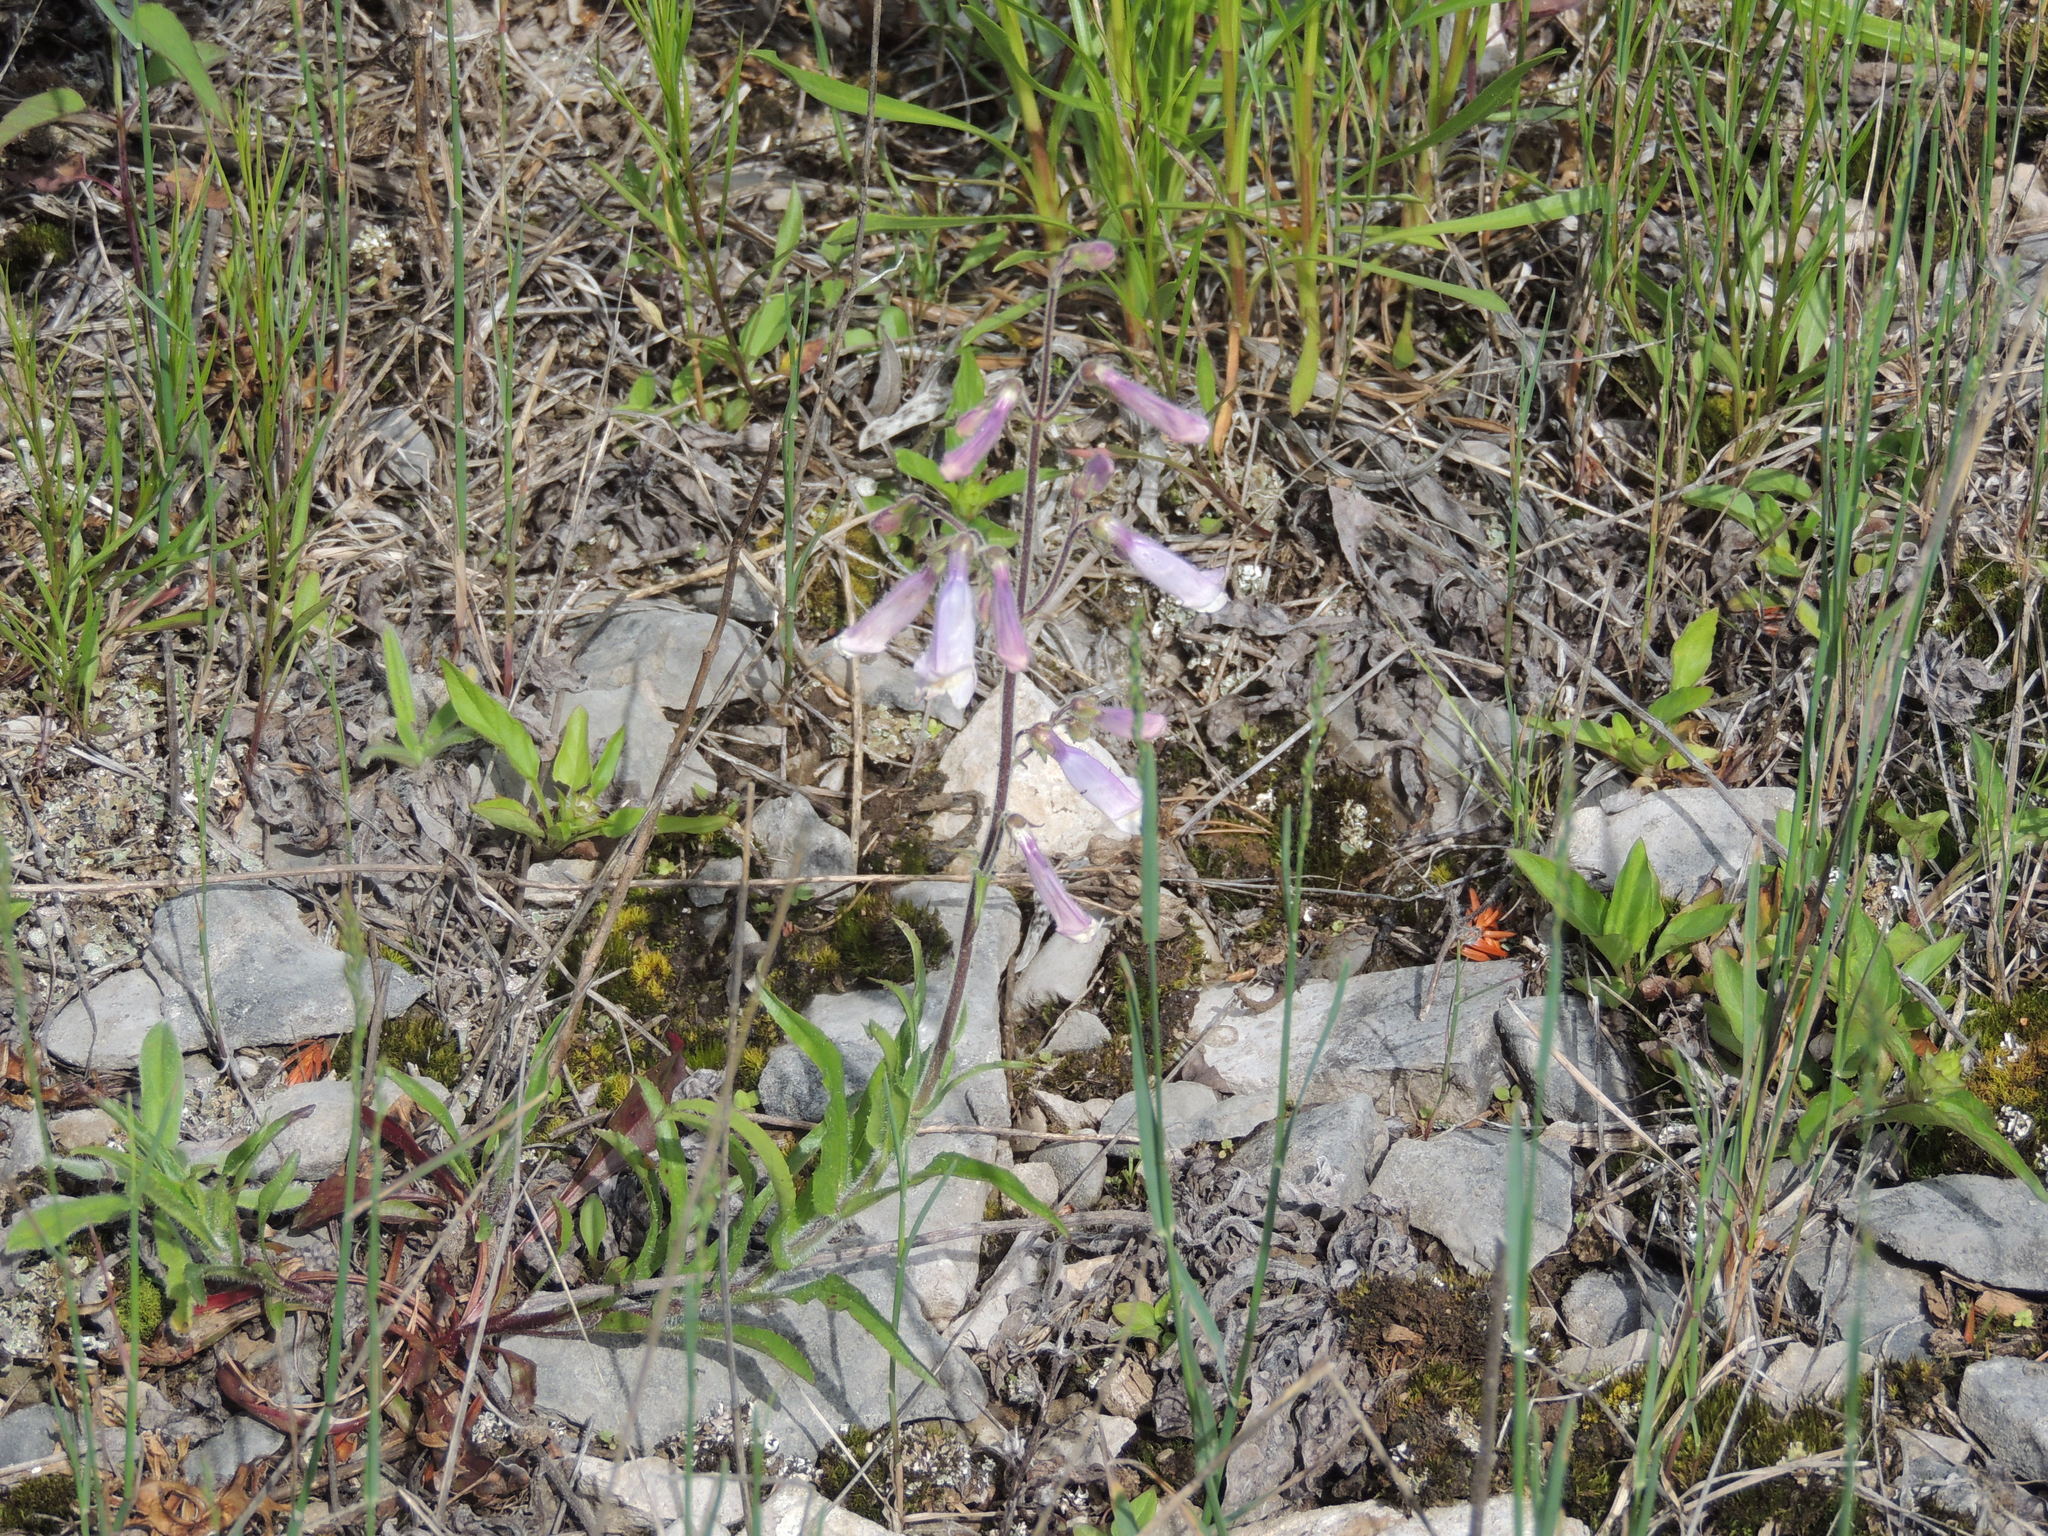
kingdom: Plantae
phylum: Tracheophyta
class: Magnoliopsida
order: Lamiales
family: Plantaginaceae
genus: Penstemon
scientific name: Penstemon hirsutus
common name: Hairy beardtongue
